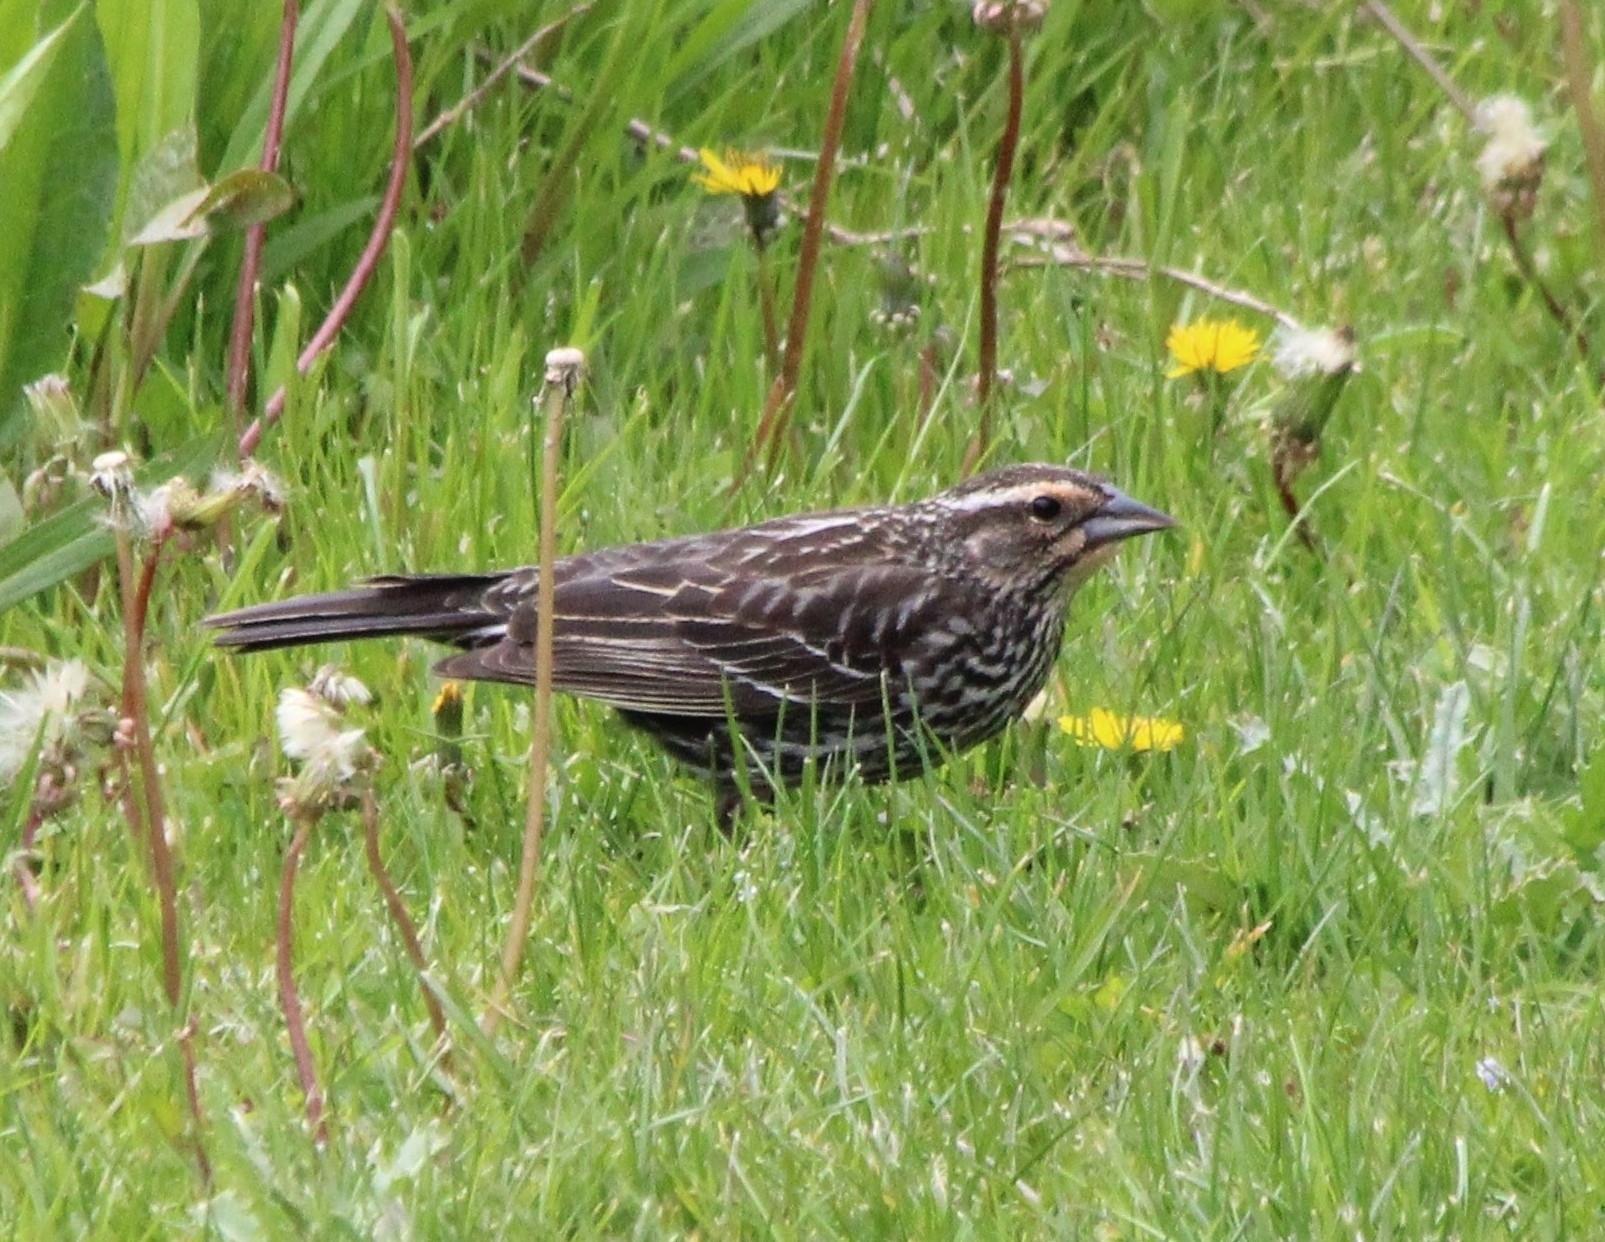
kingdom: Animalia
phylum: Chordata
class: Aves
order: Passeriformes
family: Icteridae
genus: Agelaius
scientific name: Agelaius phoeniceus
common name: Red-winged blackbird
